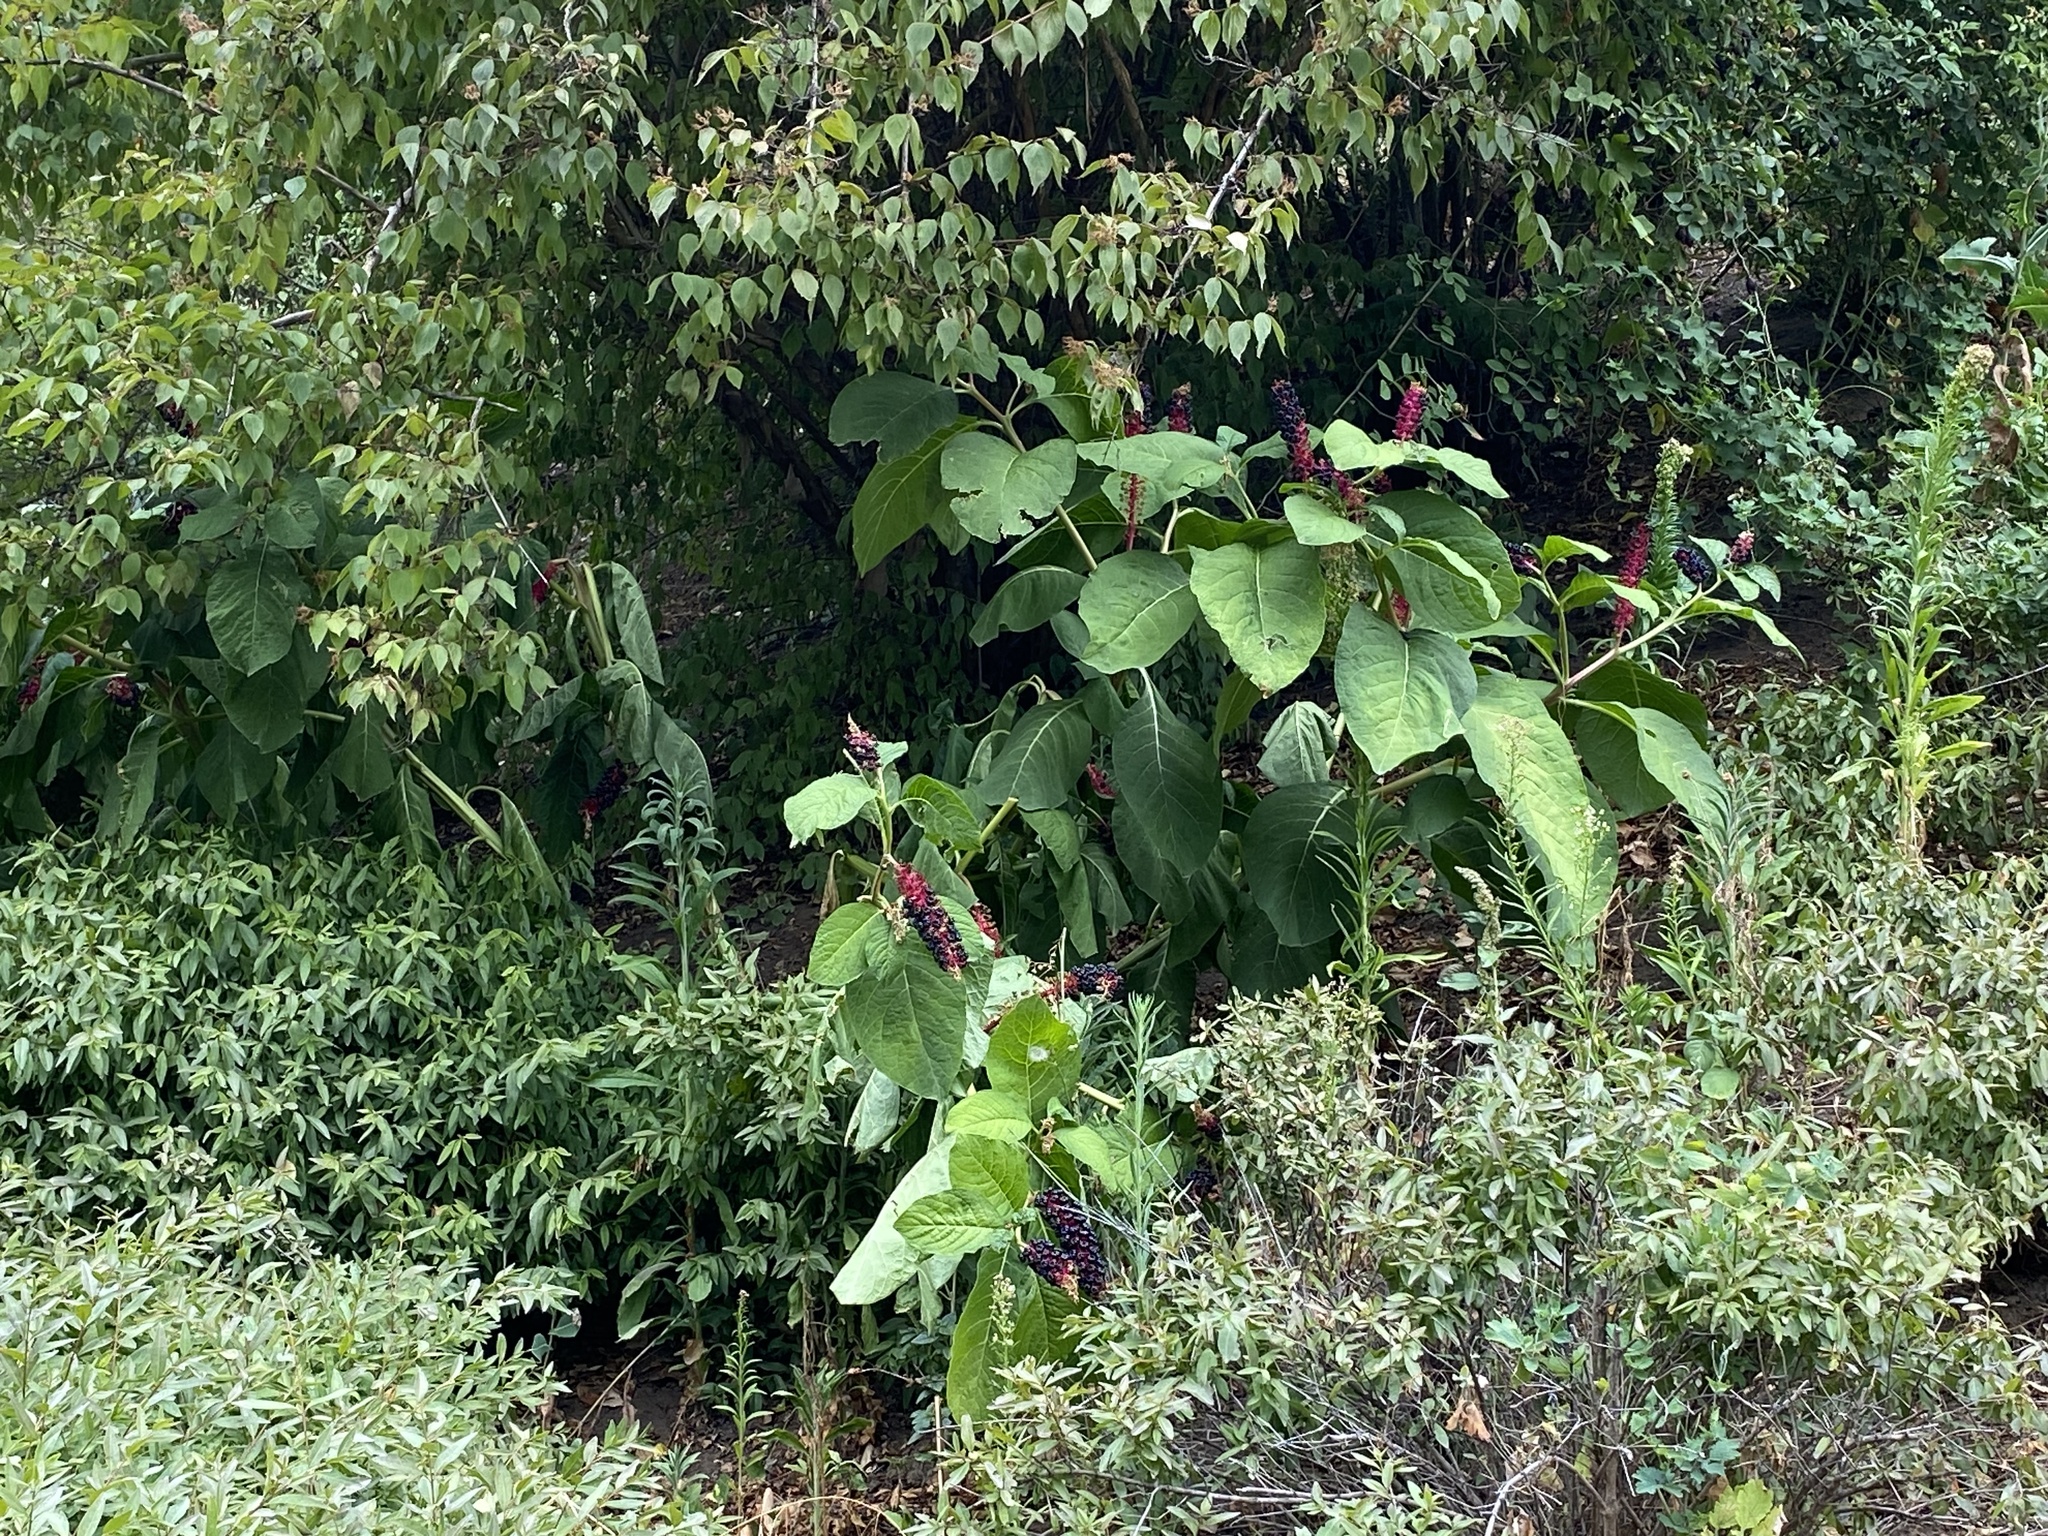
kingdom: Plantae
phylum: Tracheophyta
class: Magnoliopsida
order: Caryophyllales
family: Phytolaccaceae
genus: Phytolacca
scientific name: Phytolacca acinosa
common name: Indian pokeweed
